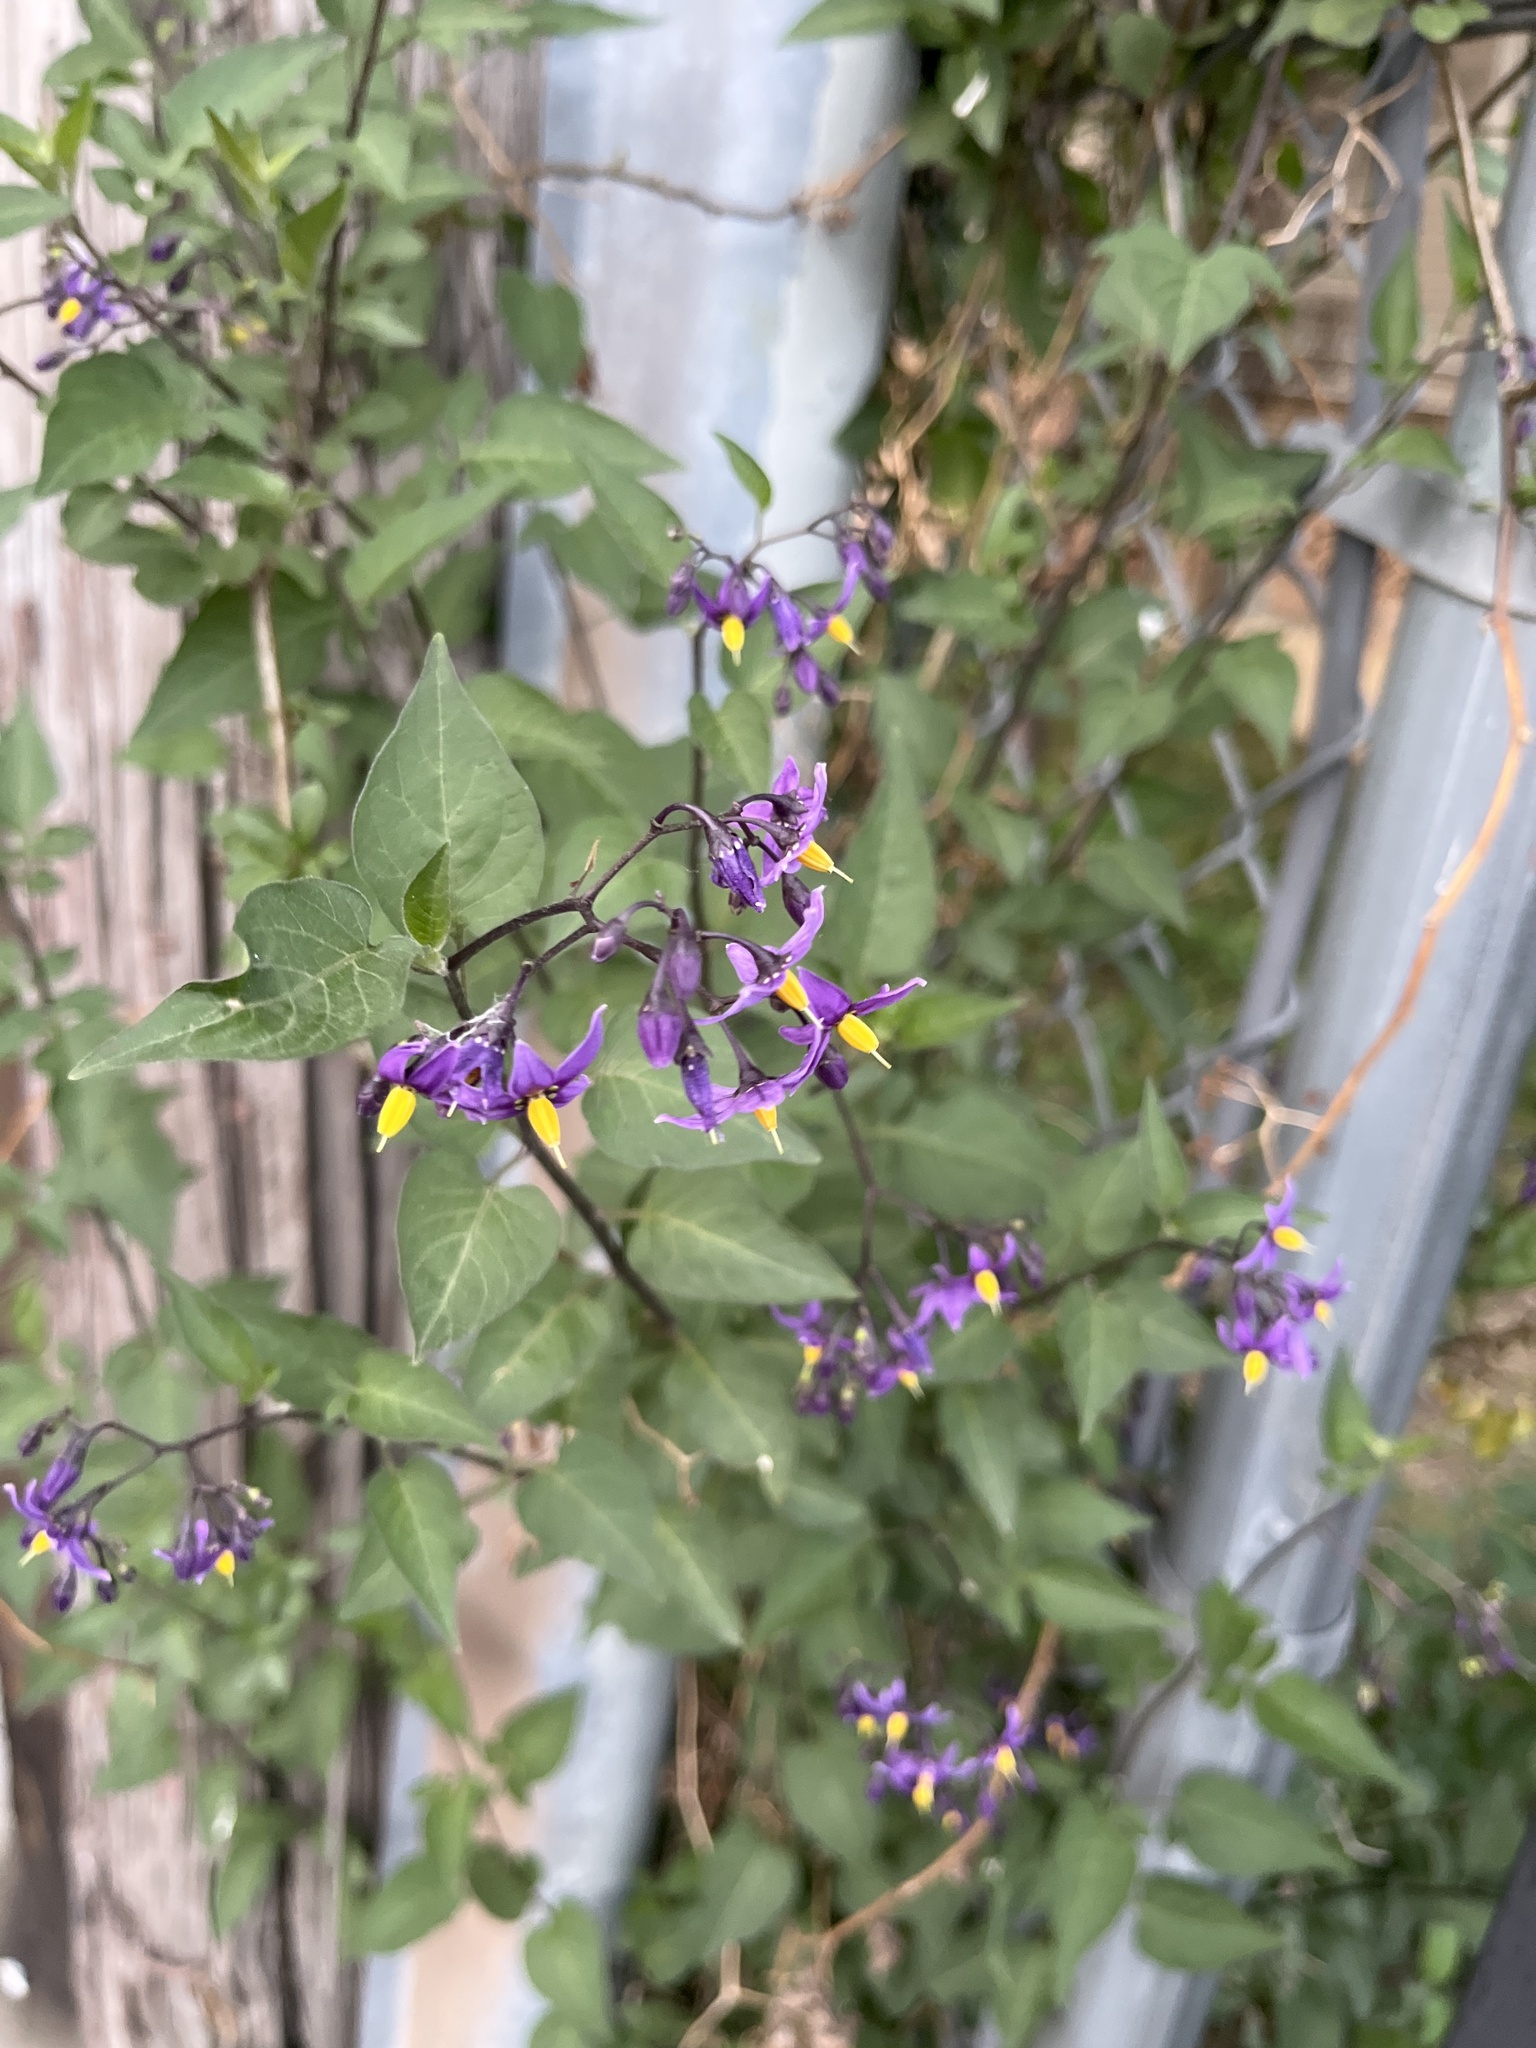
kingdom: Plantae
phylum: Tracheophyta
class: Magnoliopsida
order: Solanales
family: Solanaceae
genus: Solanum
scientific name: Solanum dulcamara
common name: Climbing nightshade
